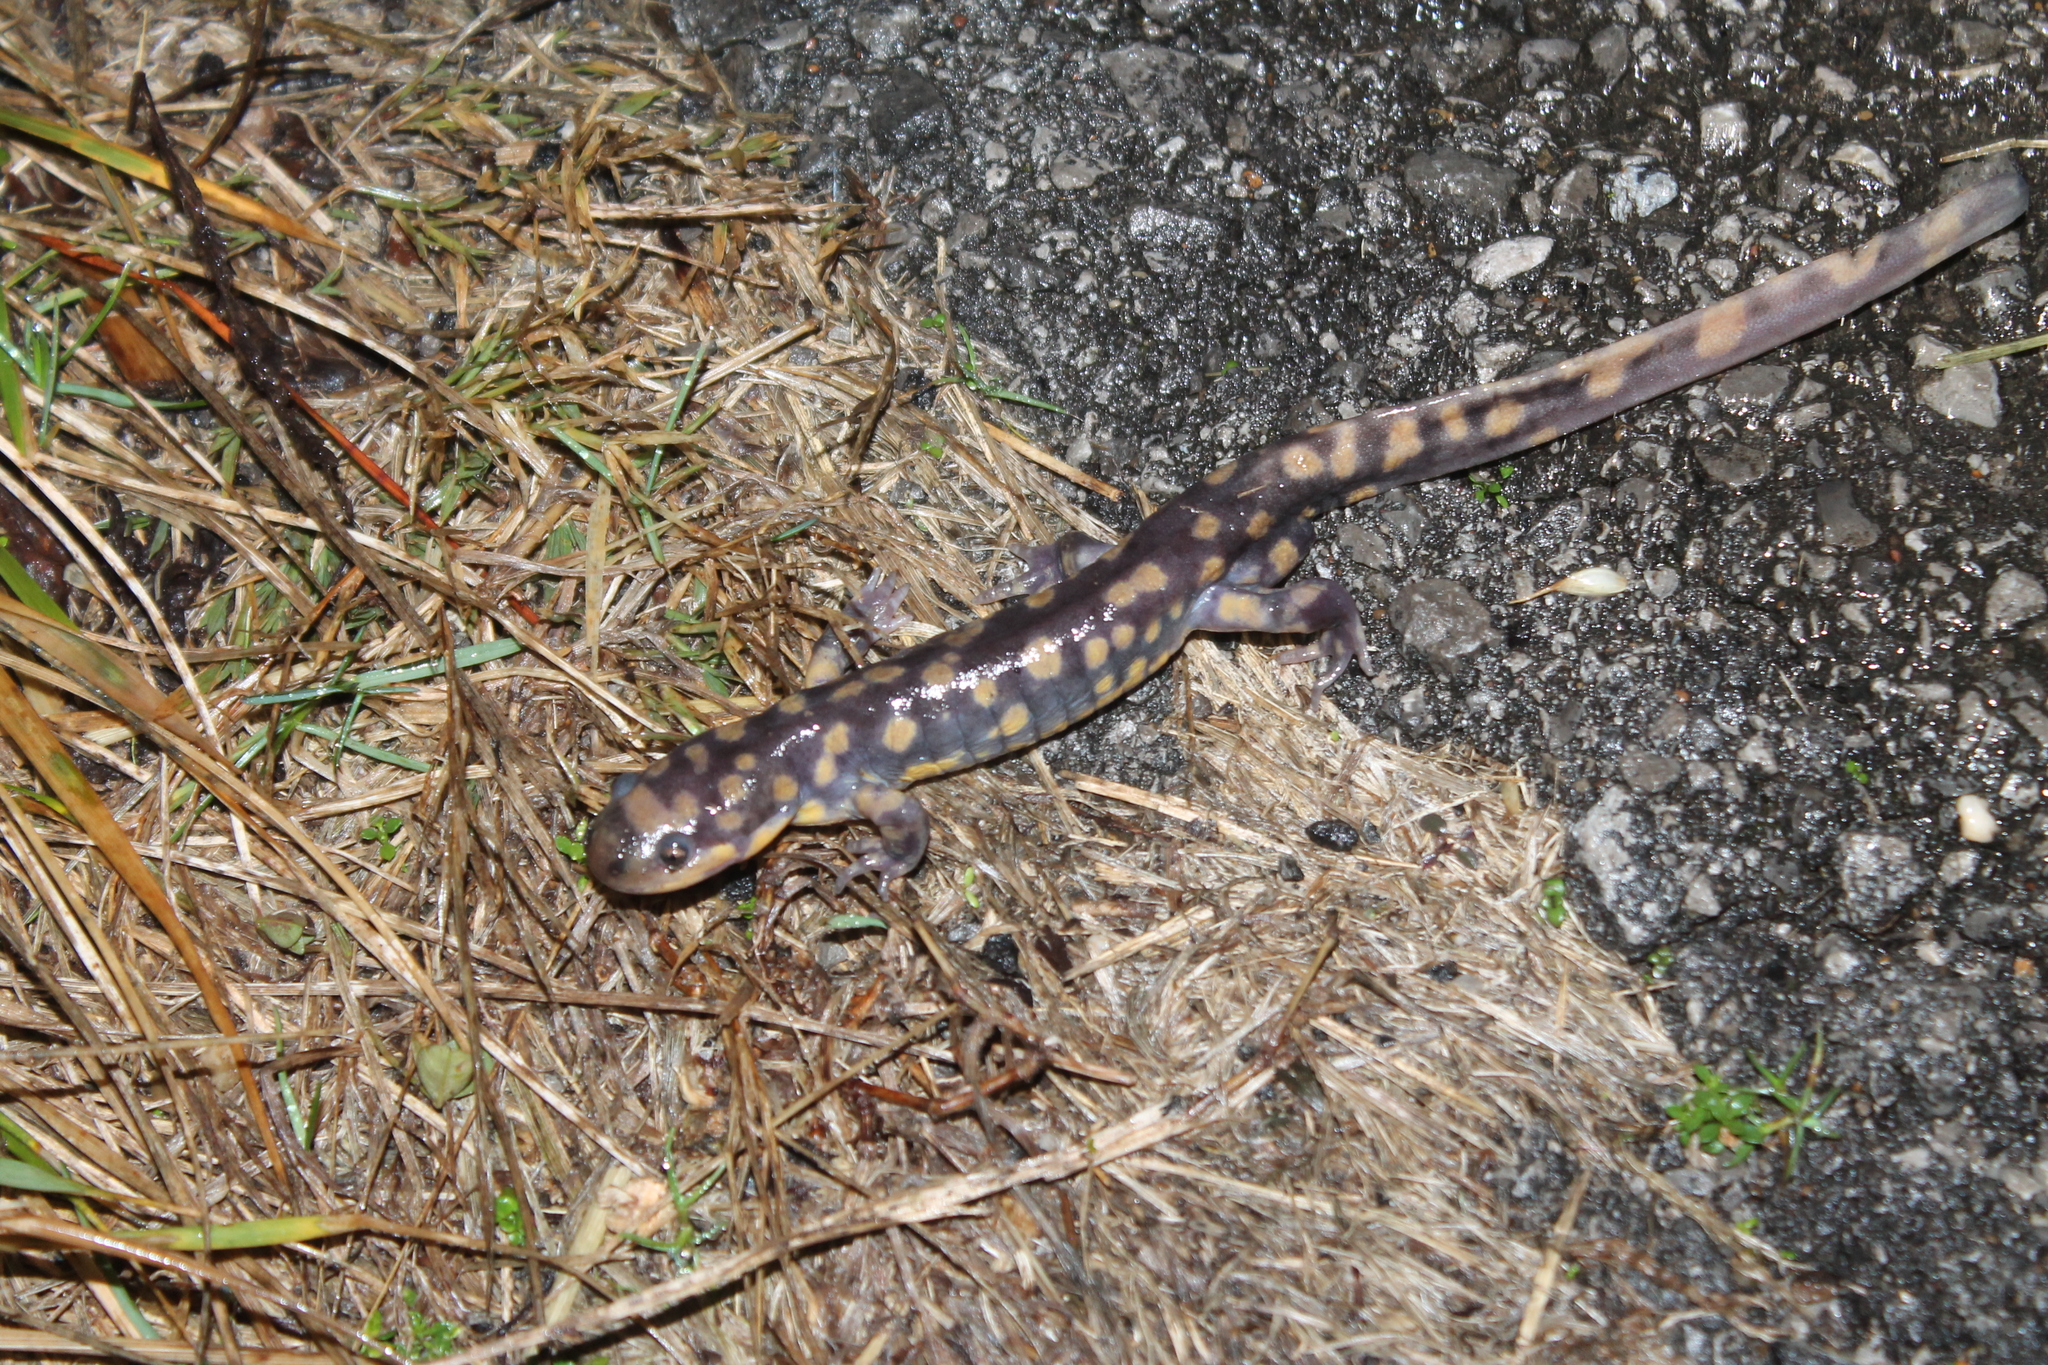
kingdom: Animalia
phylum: Chordata
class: Amphibia
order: Caudata
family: Ambystomatidae
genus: Ambystoma
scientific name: Ambystoma tigrinum
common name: Tiger salamander
